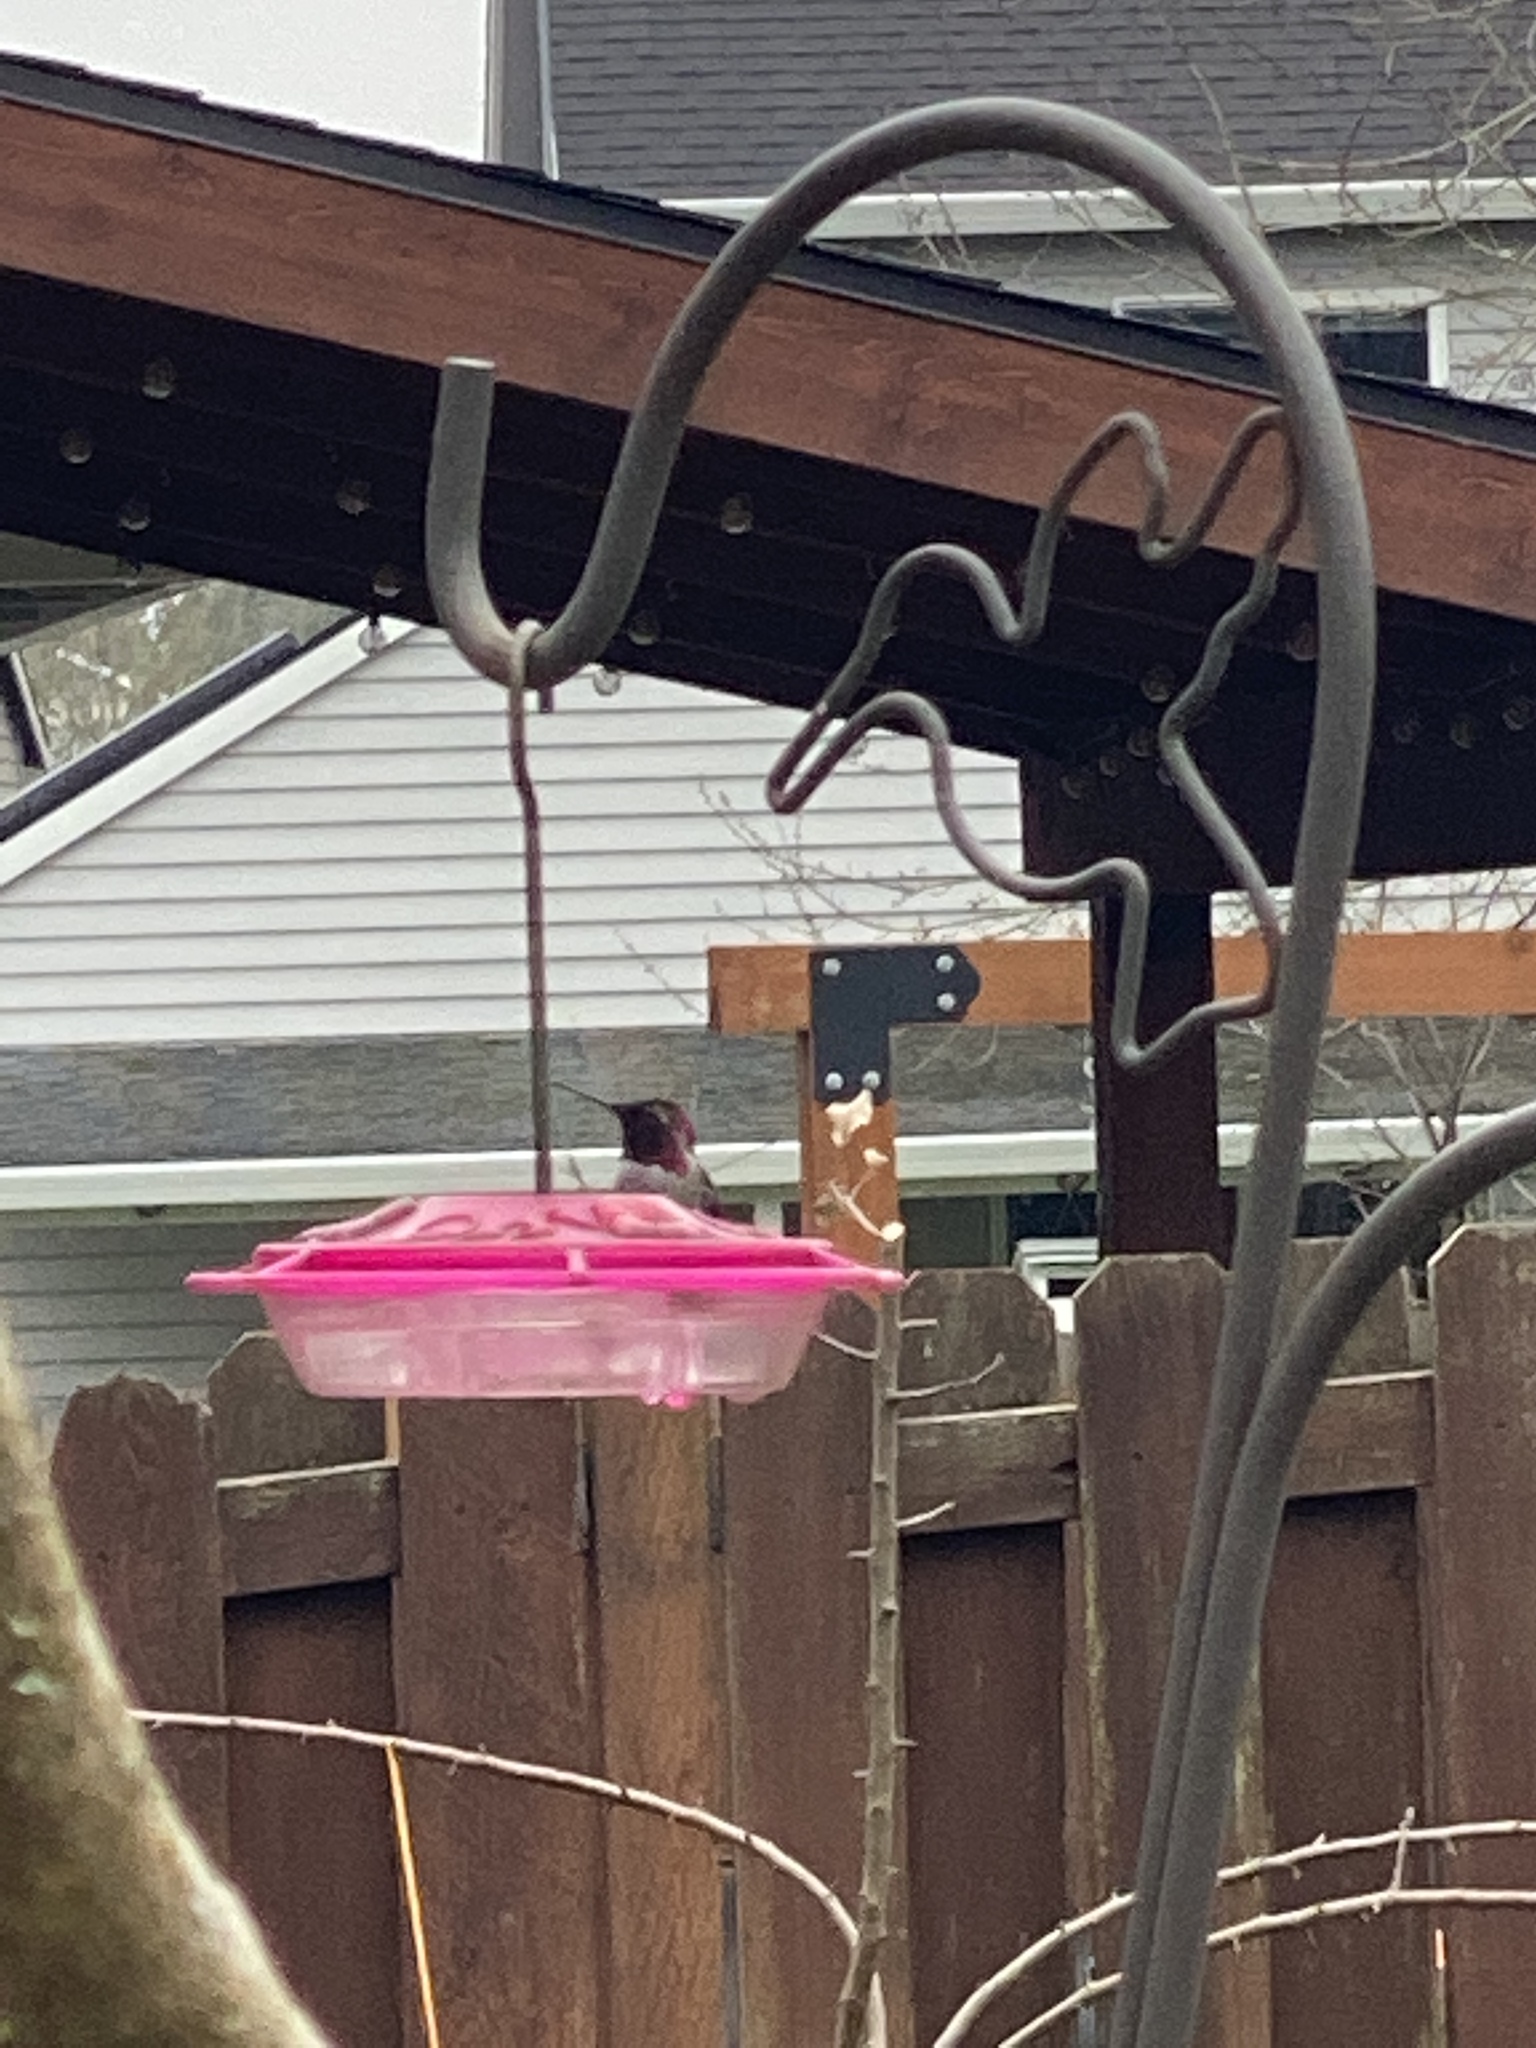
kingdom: Animalia
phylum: Chordata
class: Aves
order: Apodiformes
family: Trochilidae
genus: Calypte
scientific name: Calypte anna
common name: Anna's hummingbird
